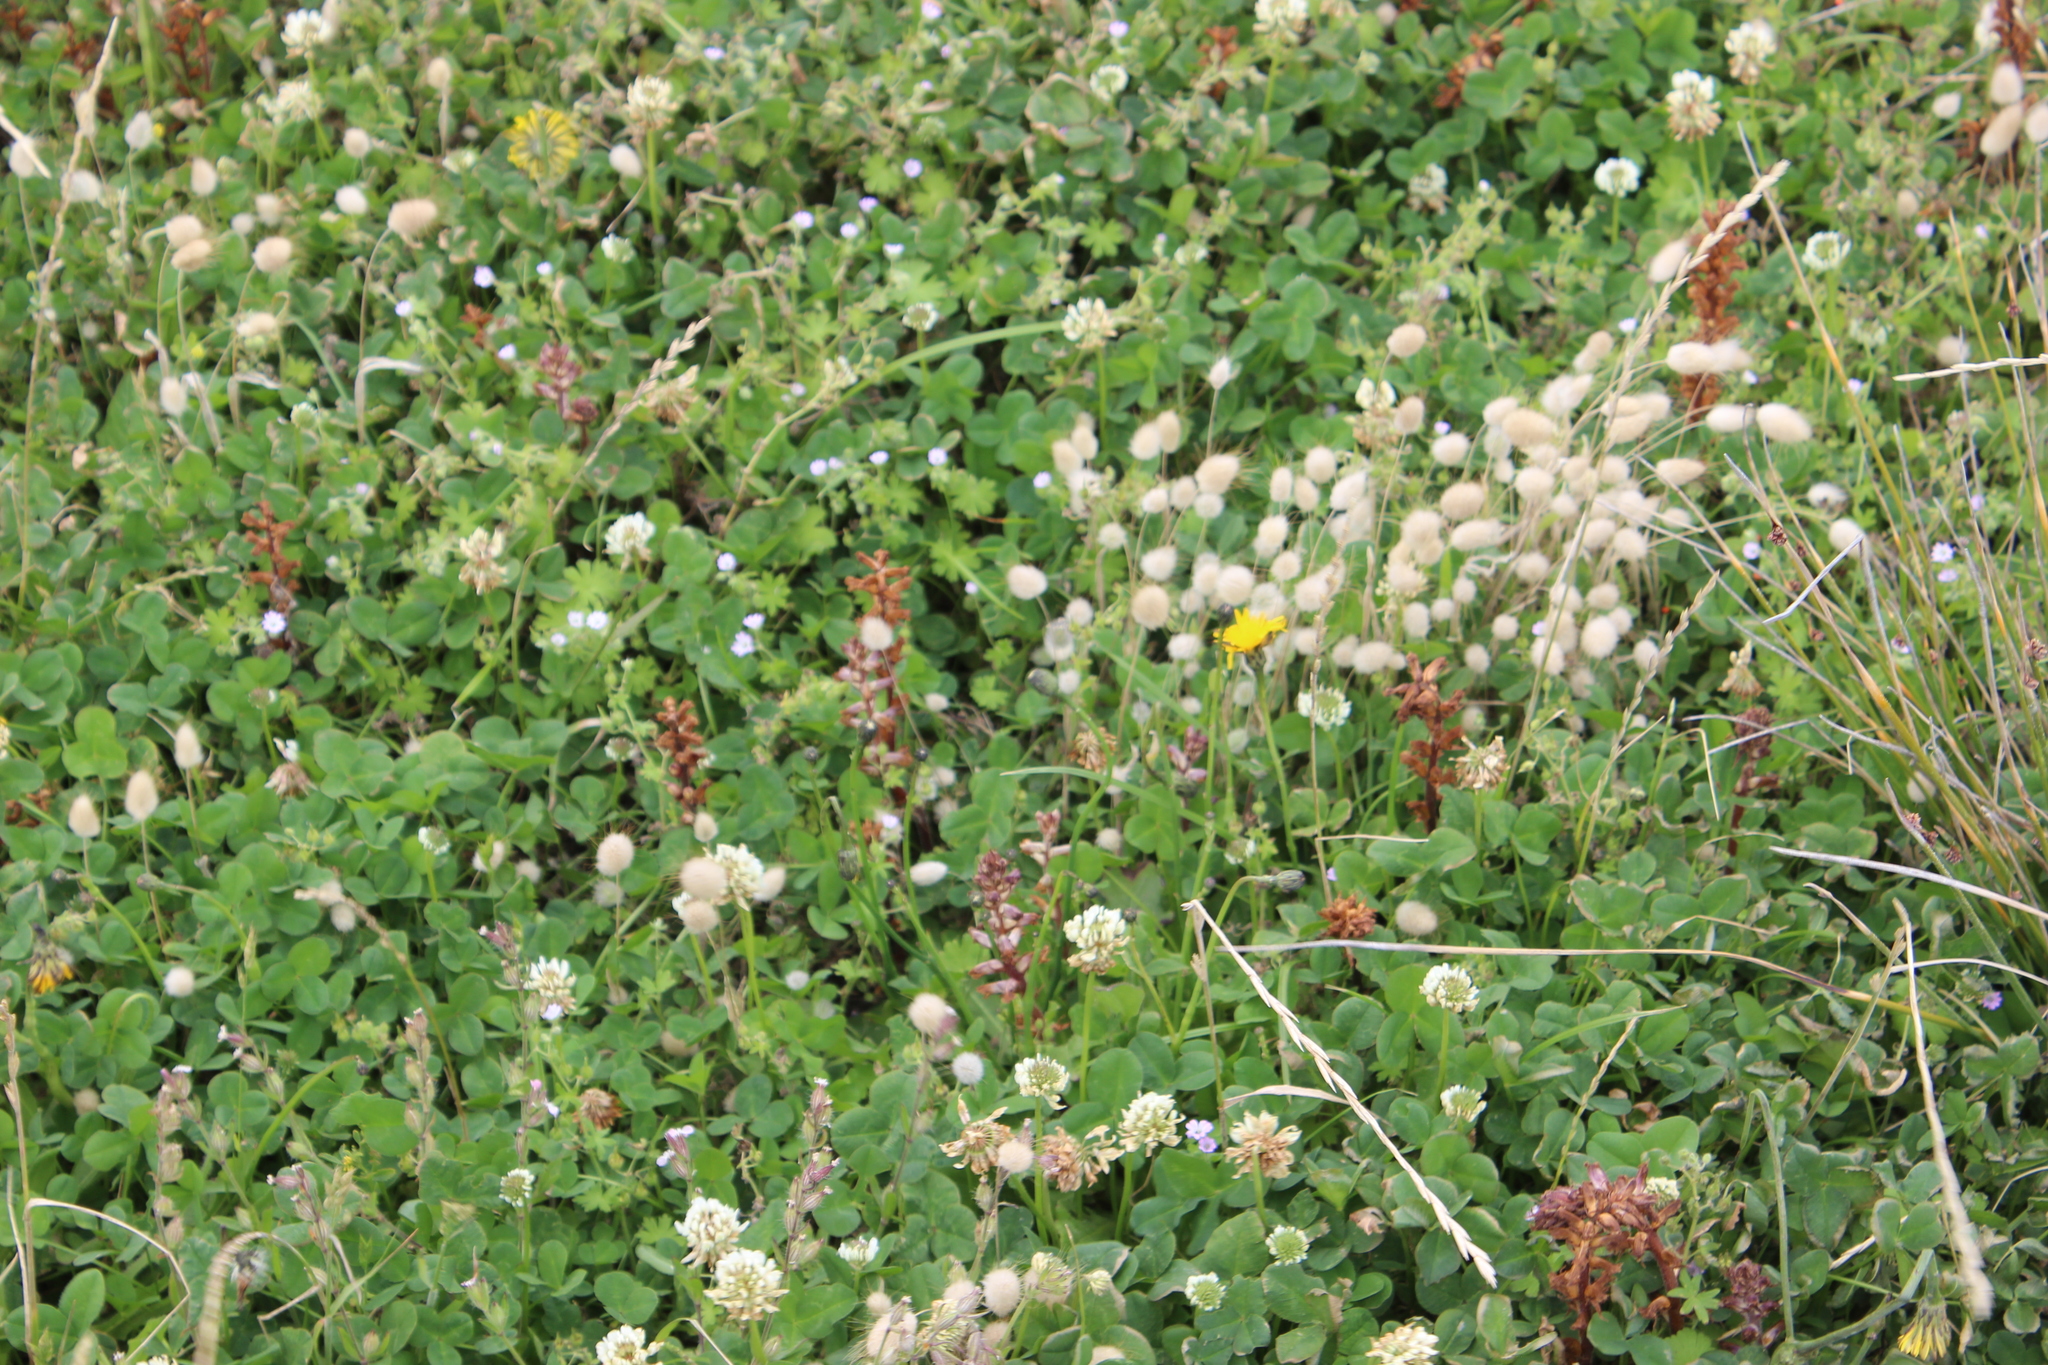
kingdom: Plantae
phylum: Tracheophyta
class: Magnoliopsida
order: Lamiales
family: Orobanchaceae
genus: Orobanche
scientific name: Orobanche minor
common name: Common broomrape
